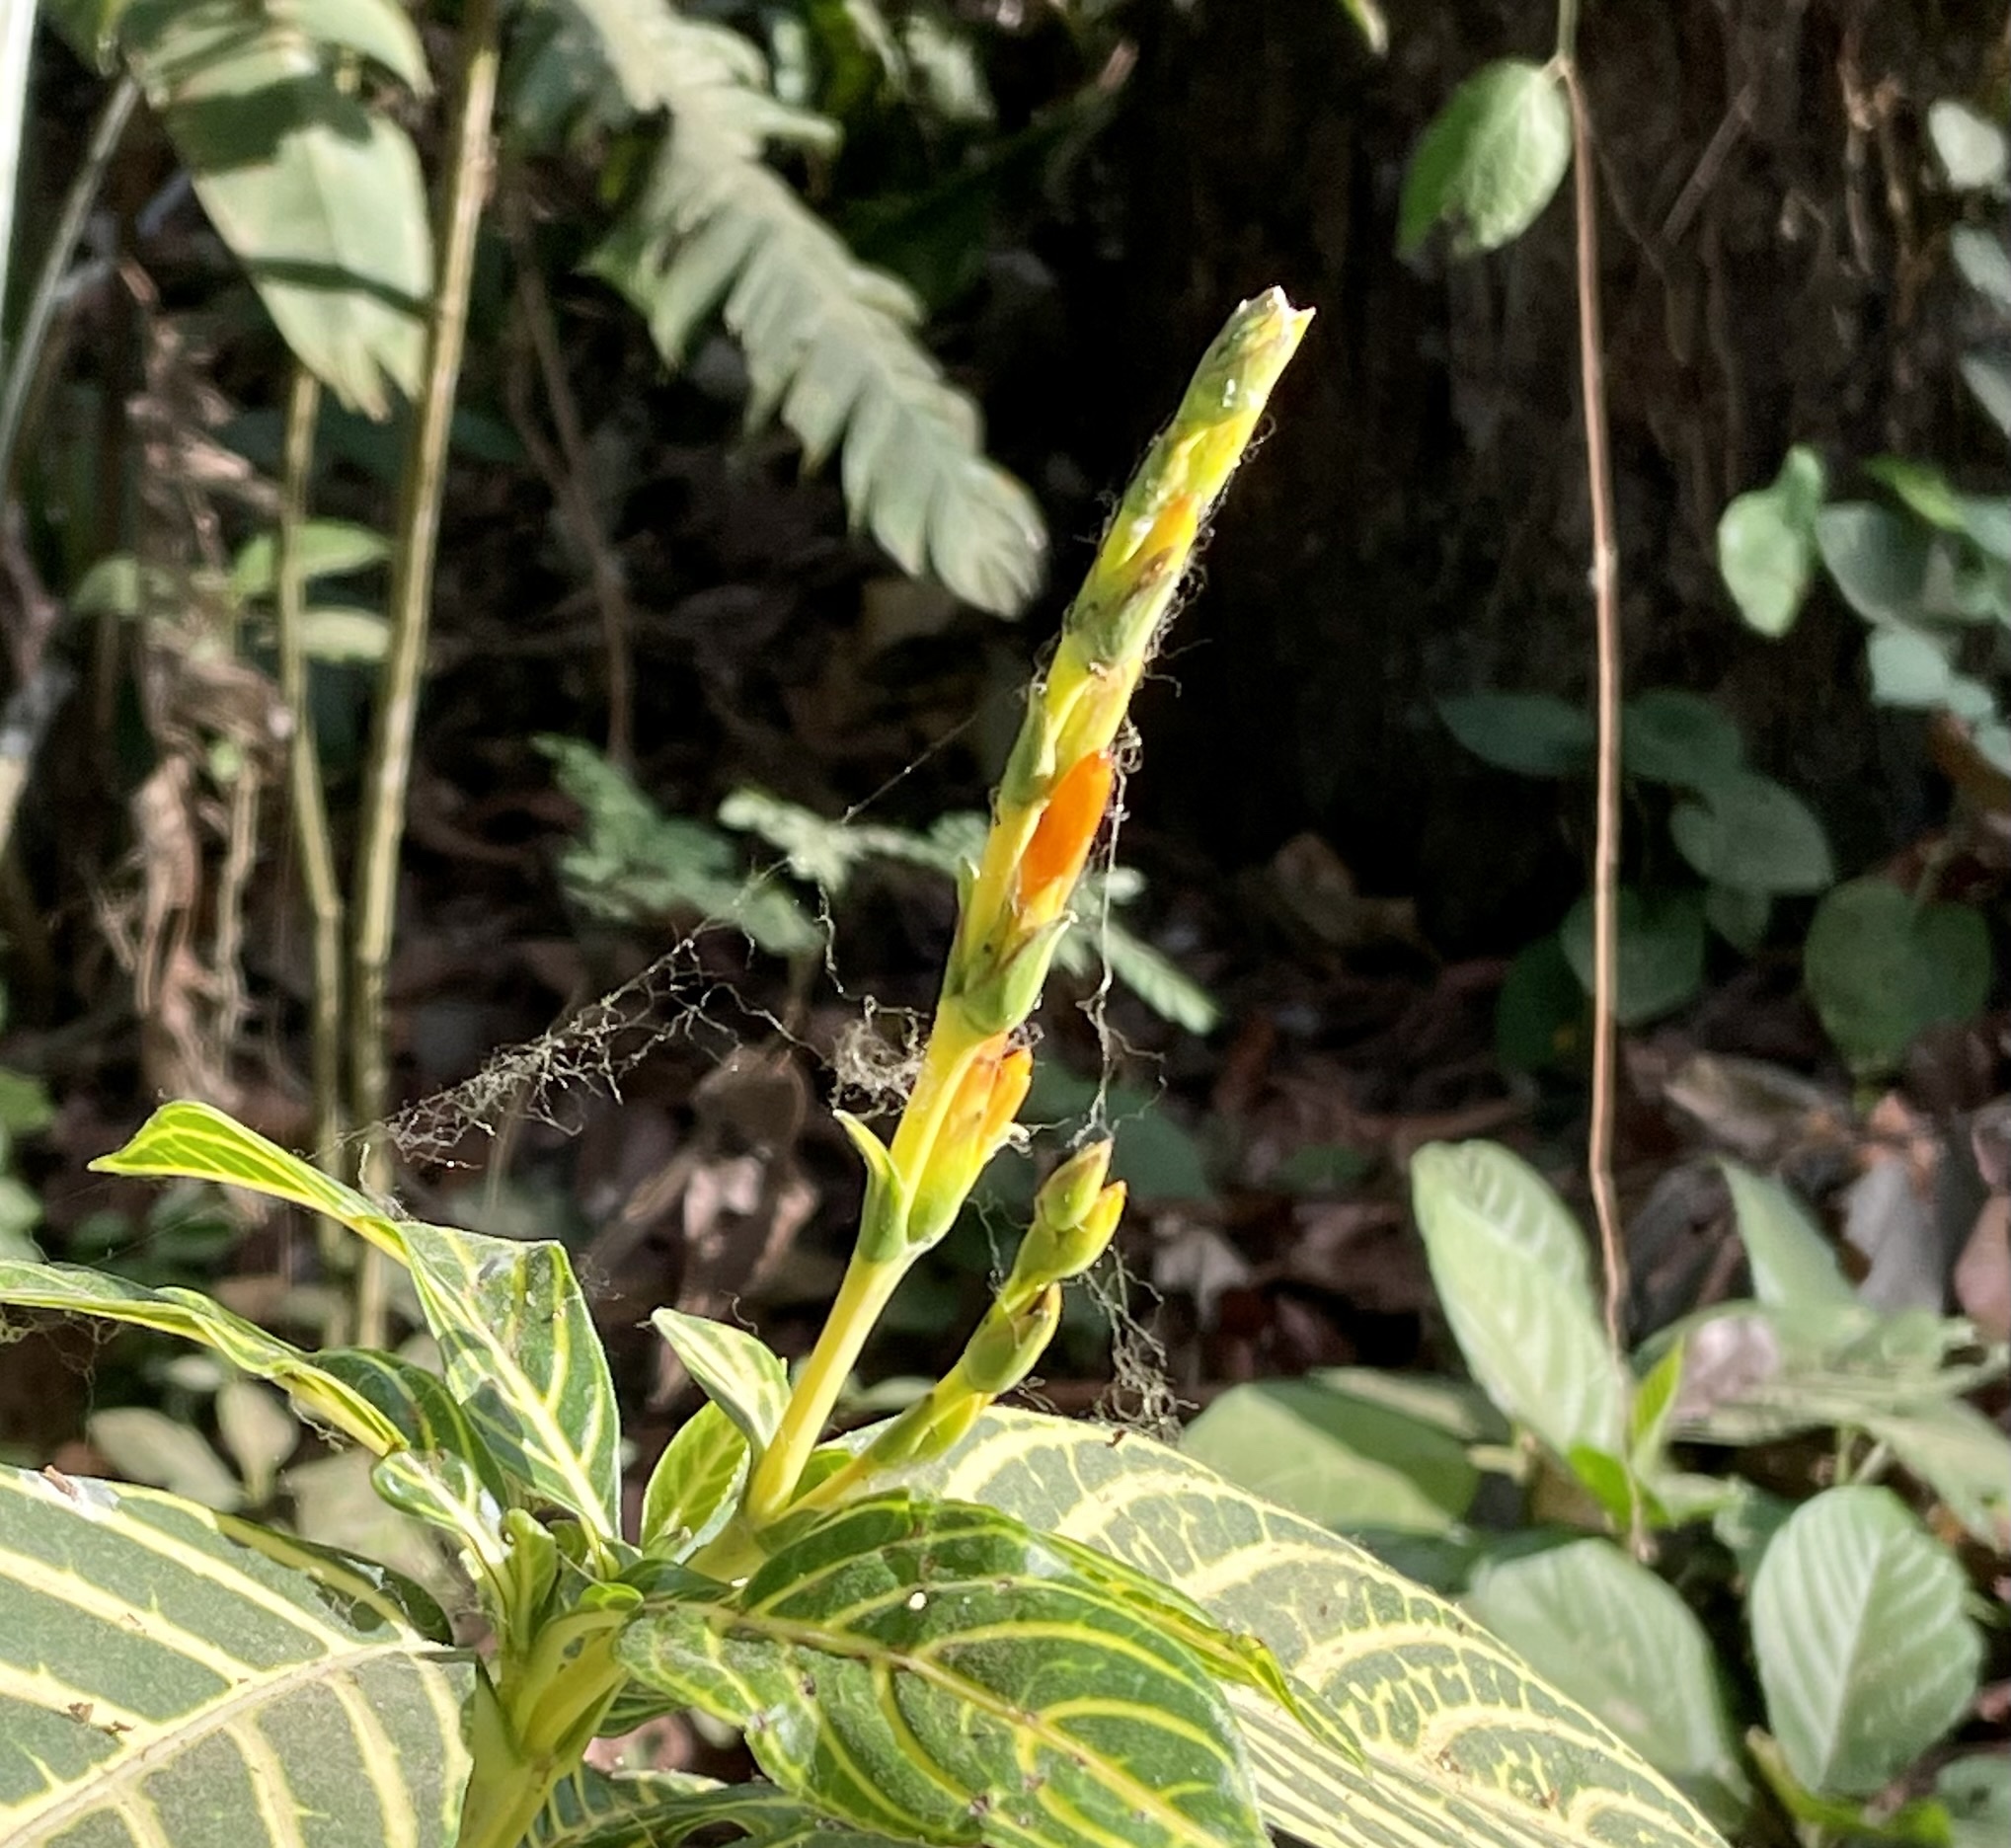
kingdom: Plantae
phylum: Tracheophyta
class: Magnoliopsida
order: Lamiales
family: Acanthaceae
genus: Sanchezia
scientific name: Sanchezia tigrina
